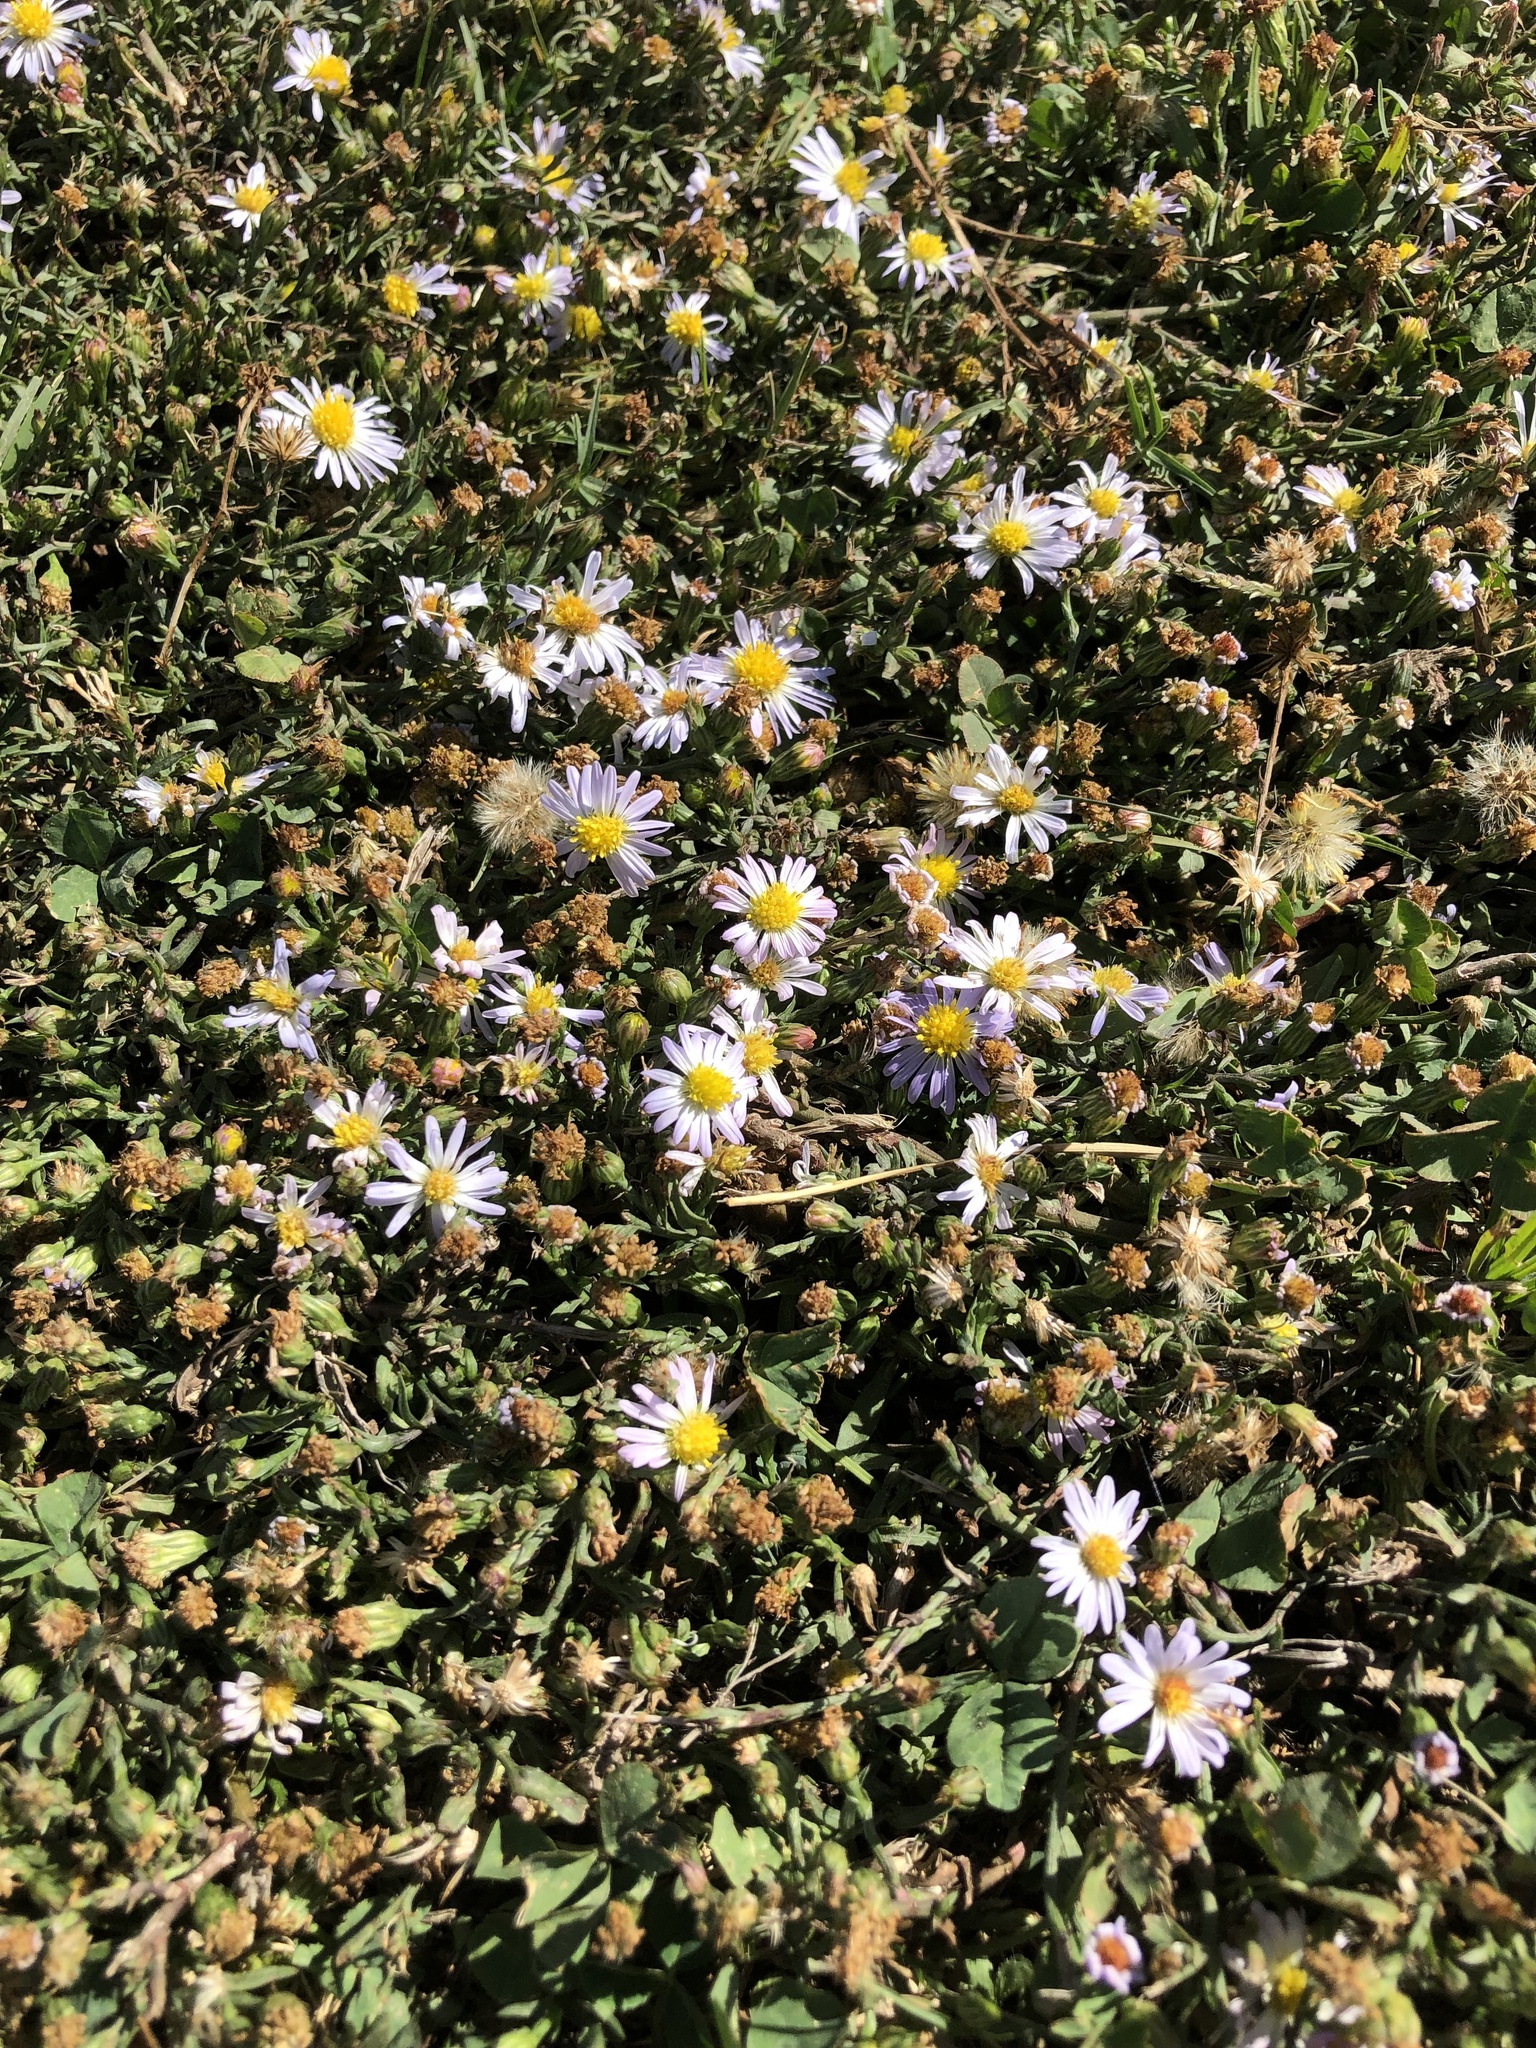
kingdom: Plantae
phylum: Tracheophyta
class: Magnoliopsida
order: Asterales
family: Asteraceae
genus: Symphyotrichum
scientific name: Symphyotrichum divaricatum
